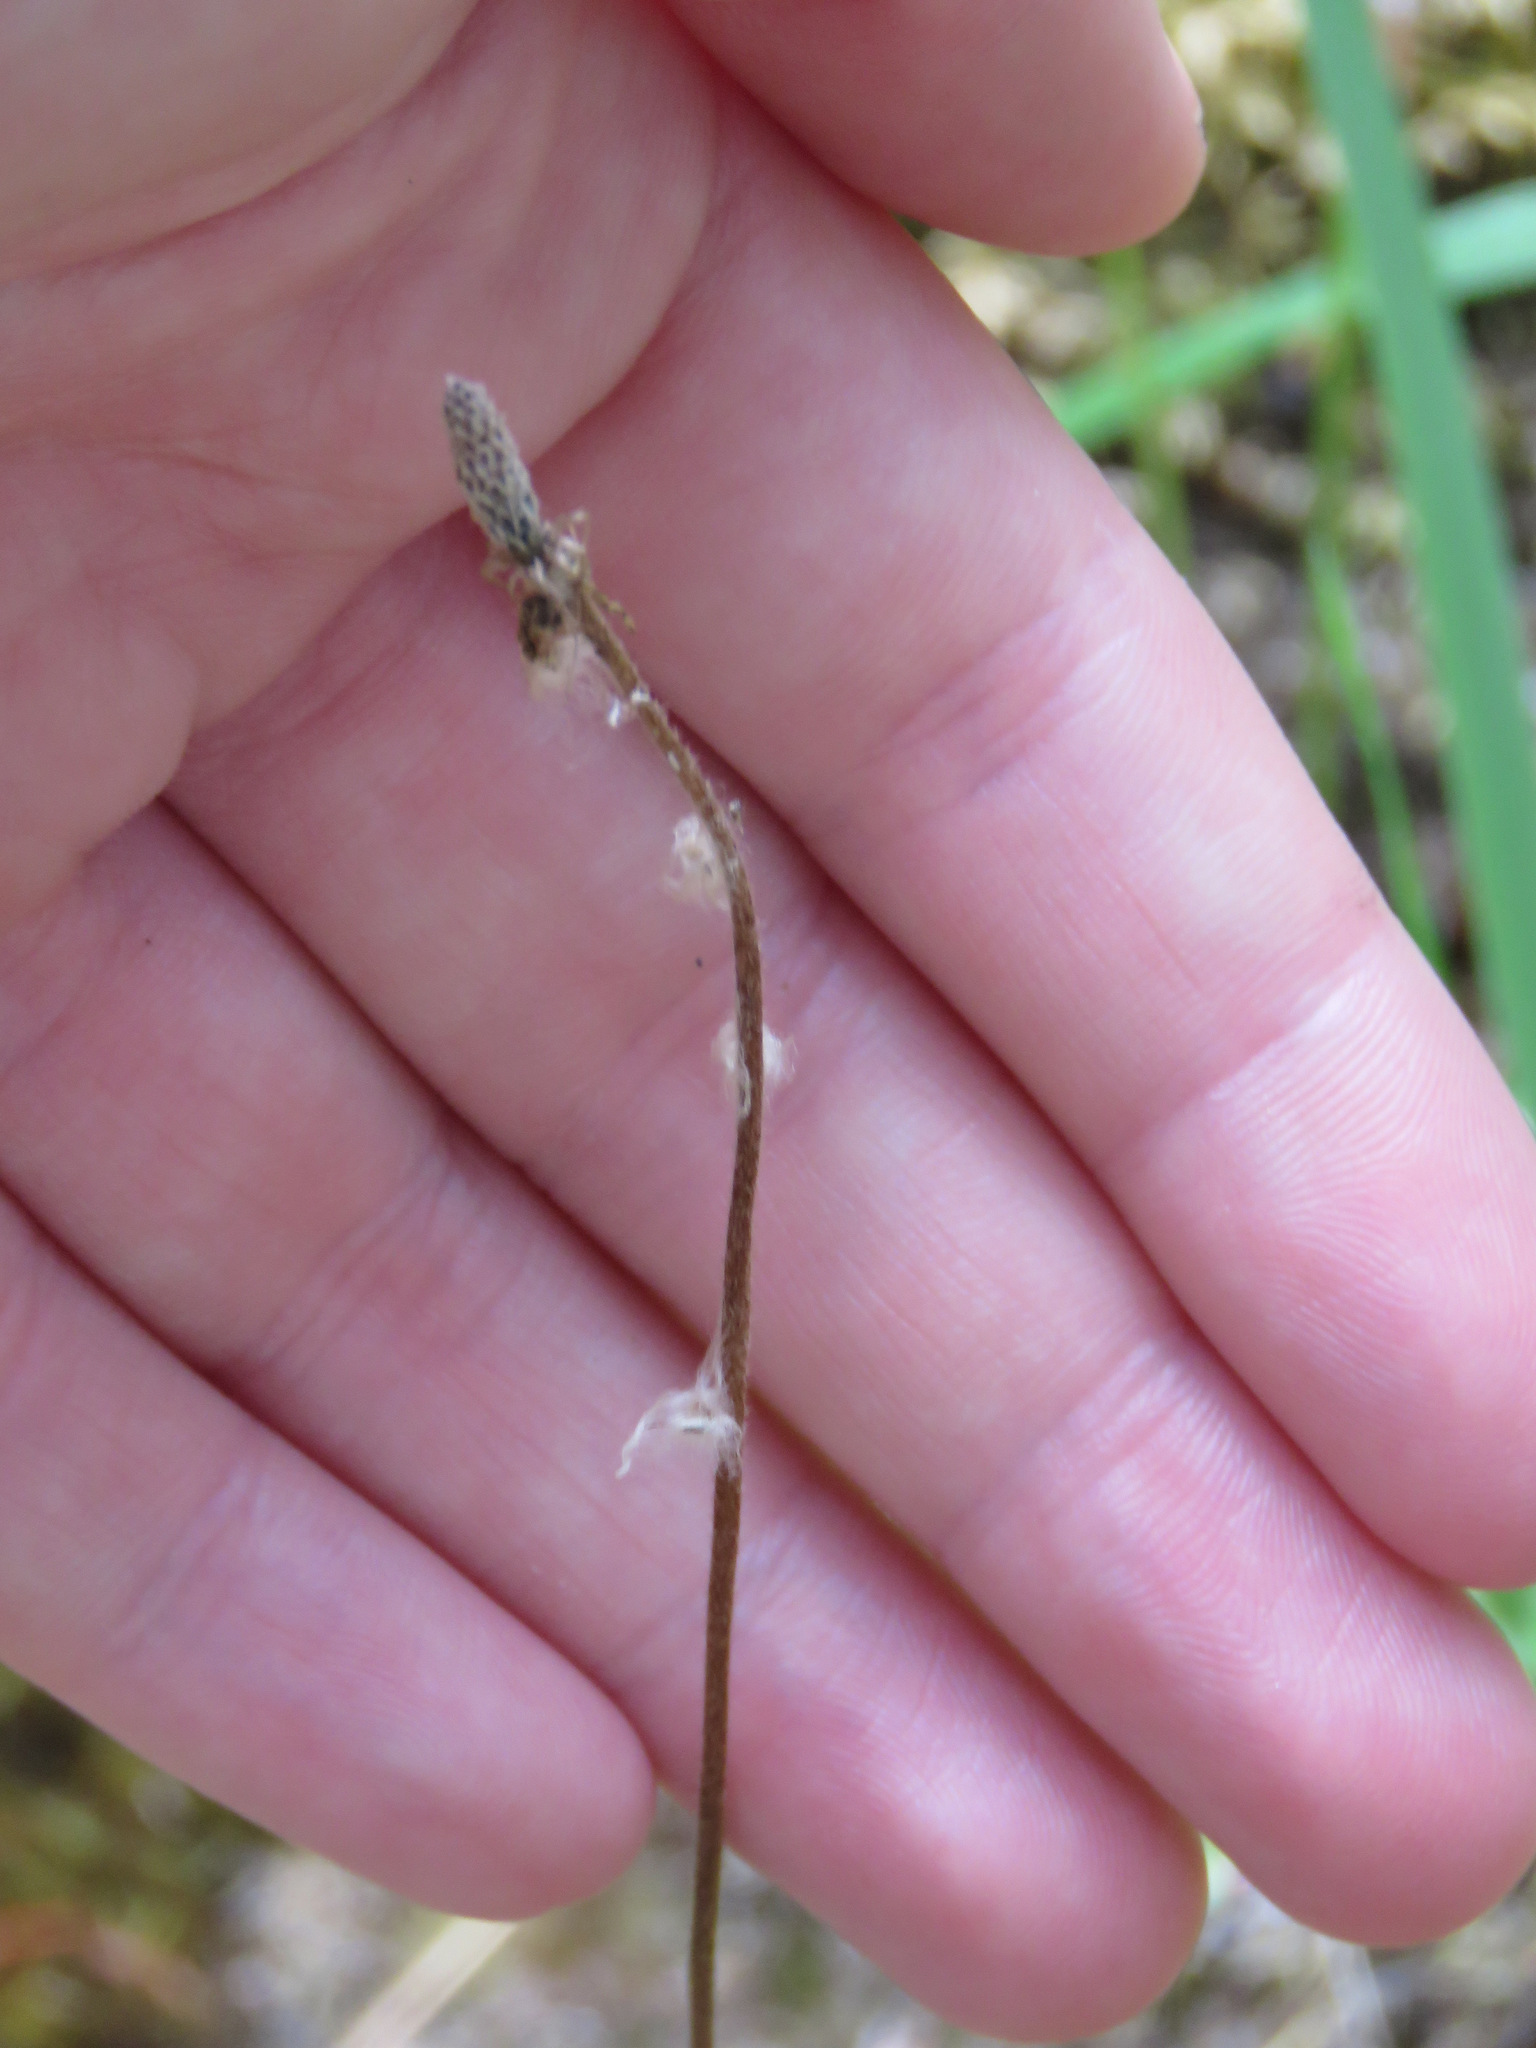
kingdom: Plantae
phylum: Tracheophyta
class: Magnoliopsida
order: Ranunculales
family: Ranunculaceae
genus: Anemone
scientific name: Anemone parviflora
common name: Northern anemone
